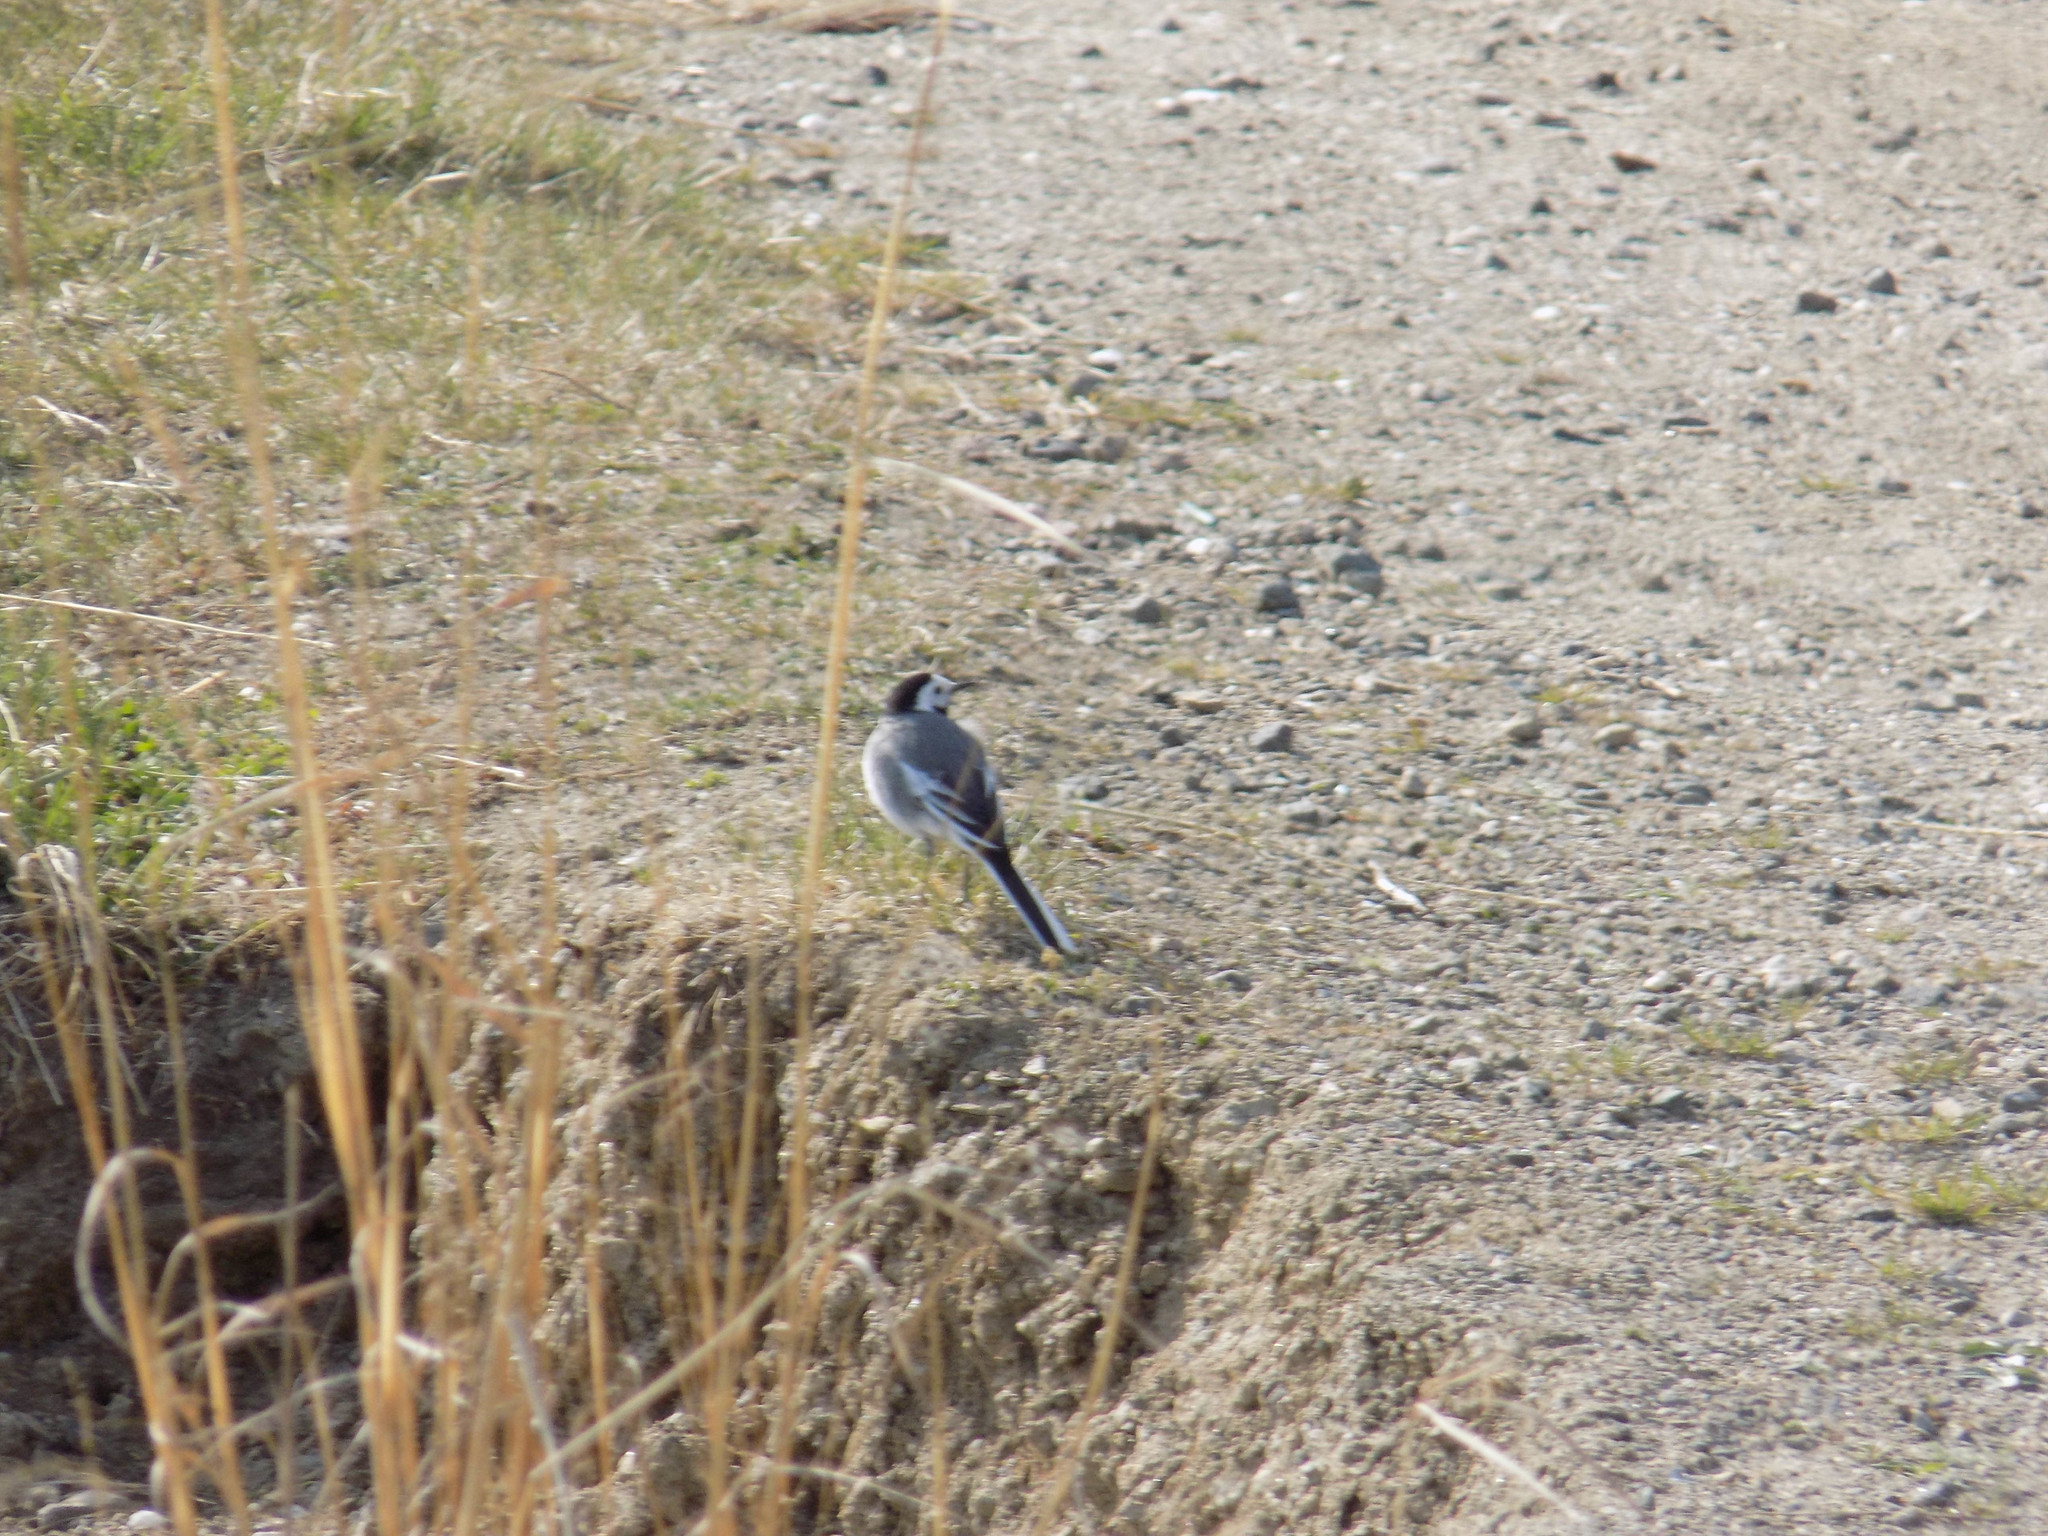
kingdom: Animalia
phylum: Chordata
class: Aves
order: Passeriformes
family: Motacillidae
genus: Motacilla
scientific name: Motacilla alba
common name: White wagtail
